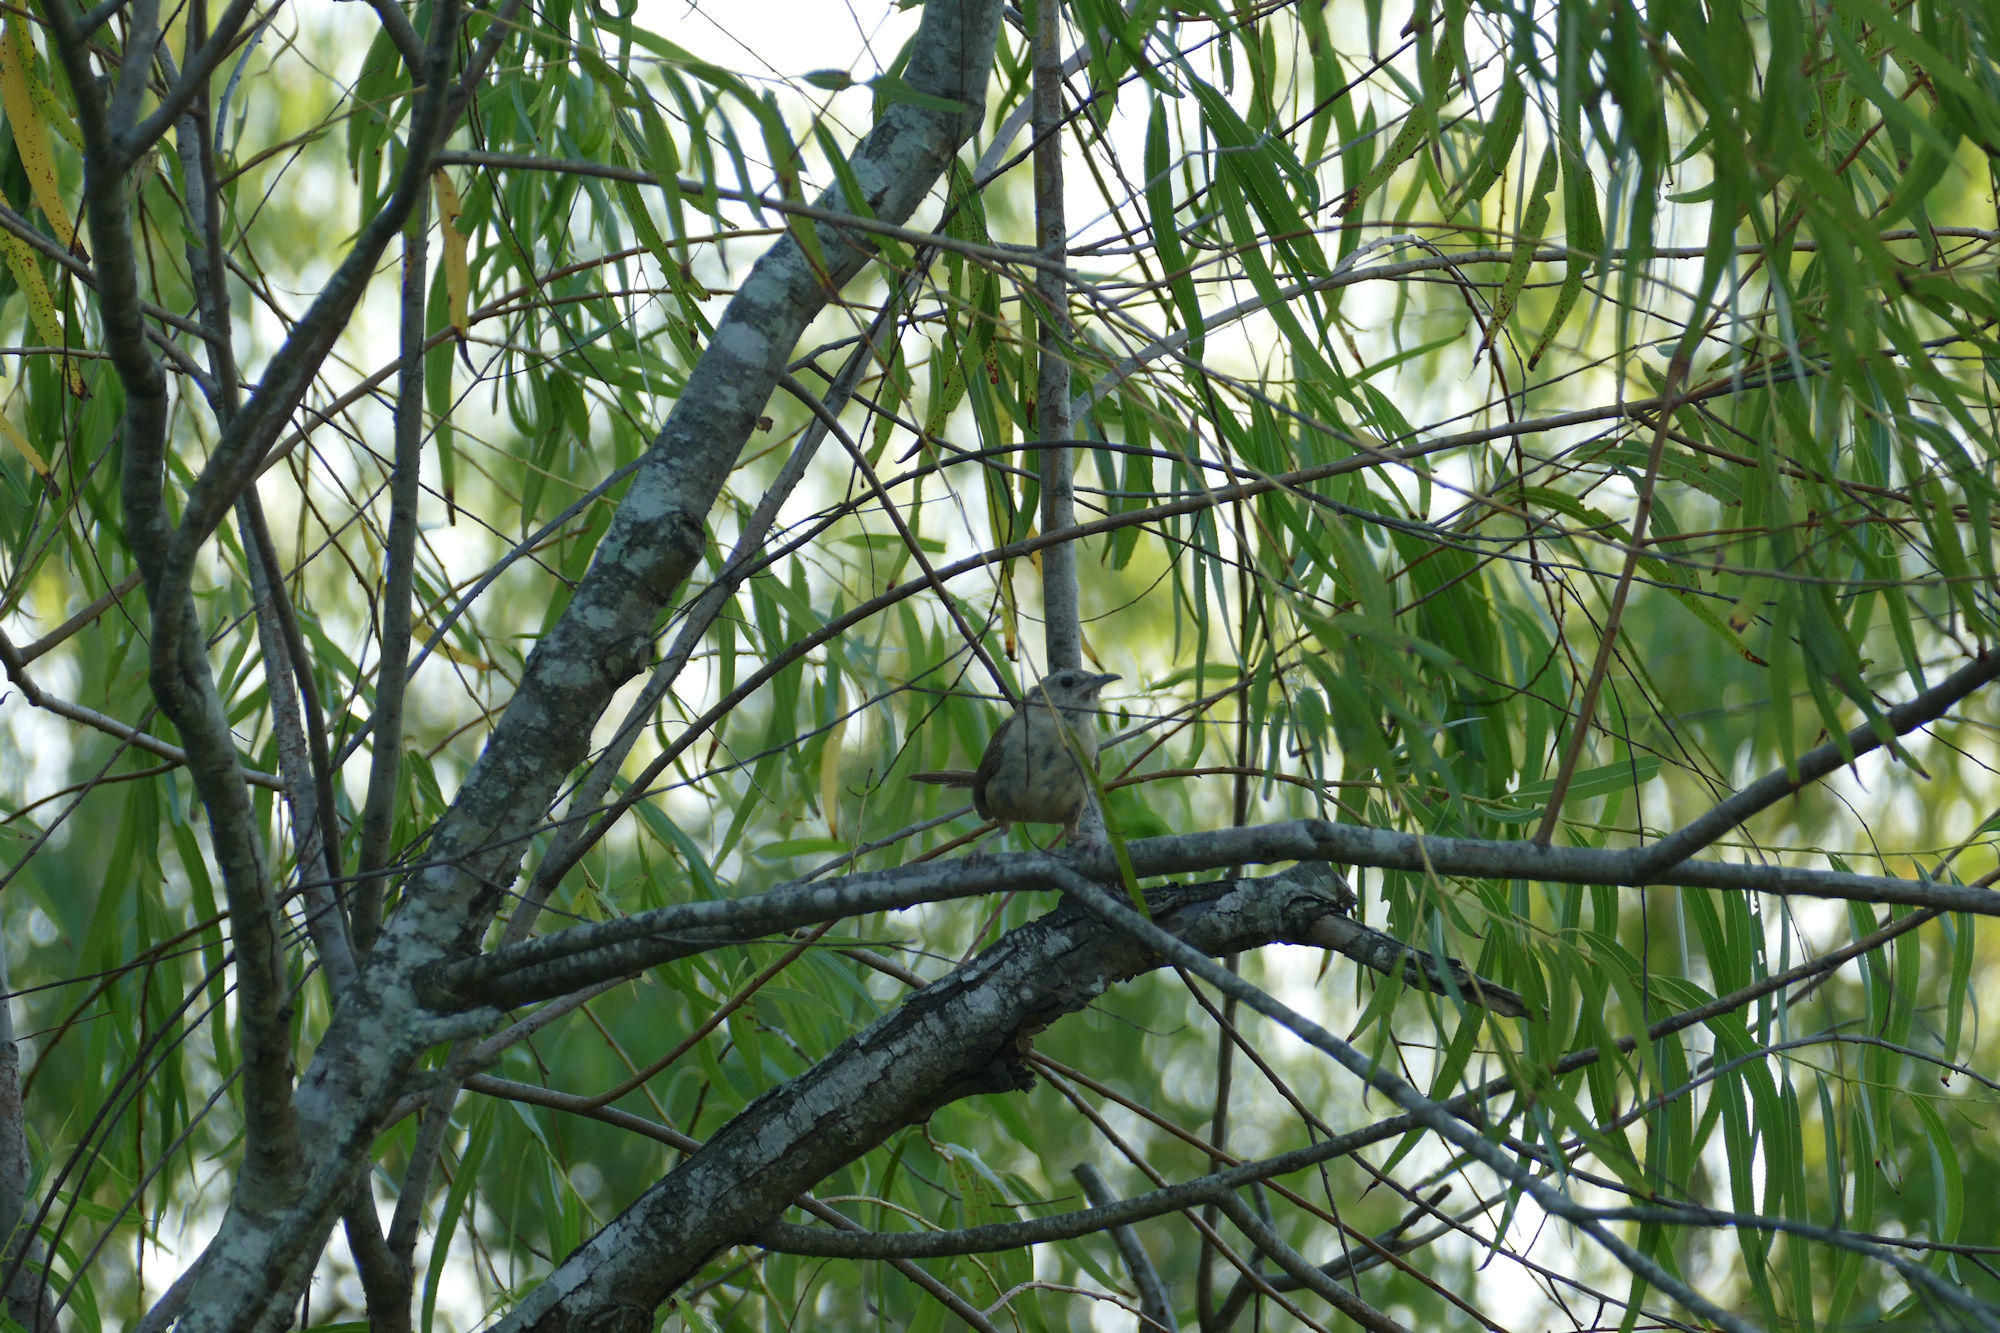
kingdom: Plantae
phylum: Tracheophyta
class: Magnoliopsida
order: Malpighiales
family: Salicaceae
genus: Salix
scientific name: Salix nigra
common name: Black willow
